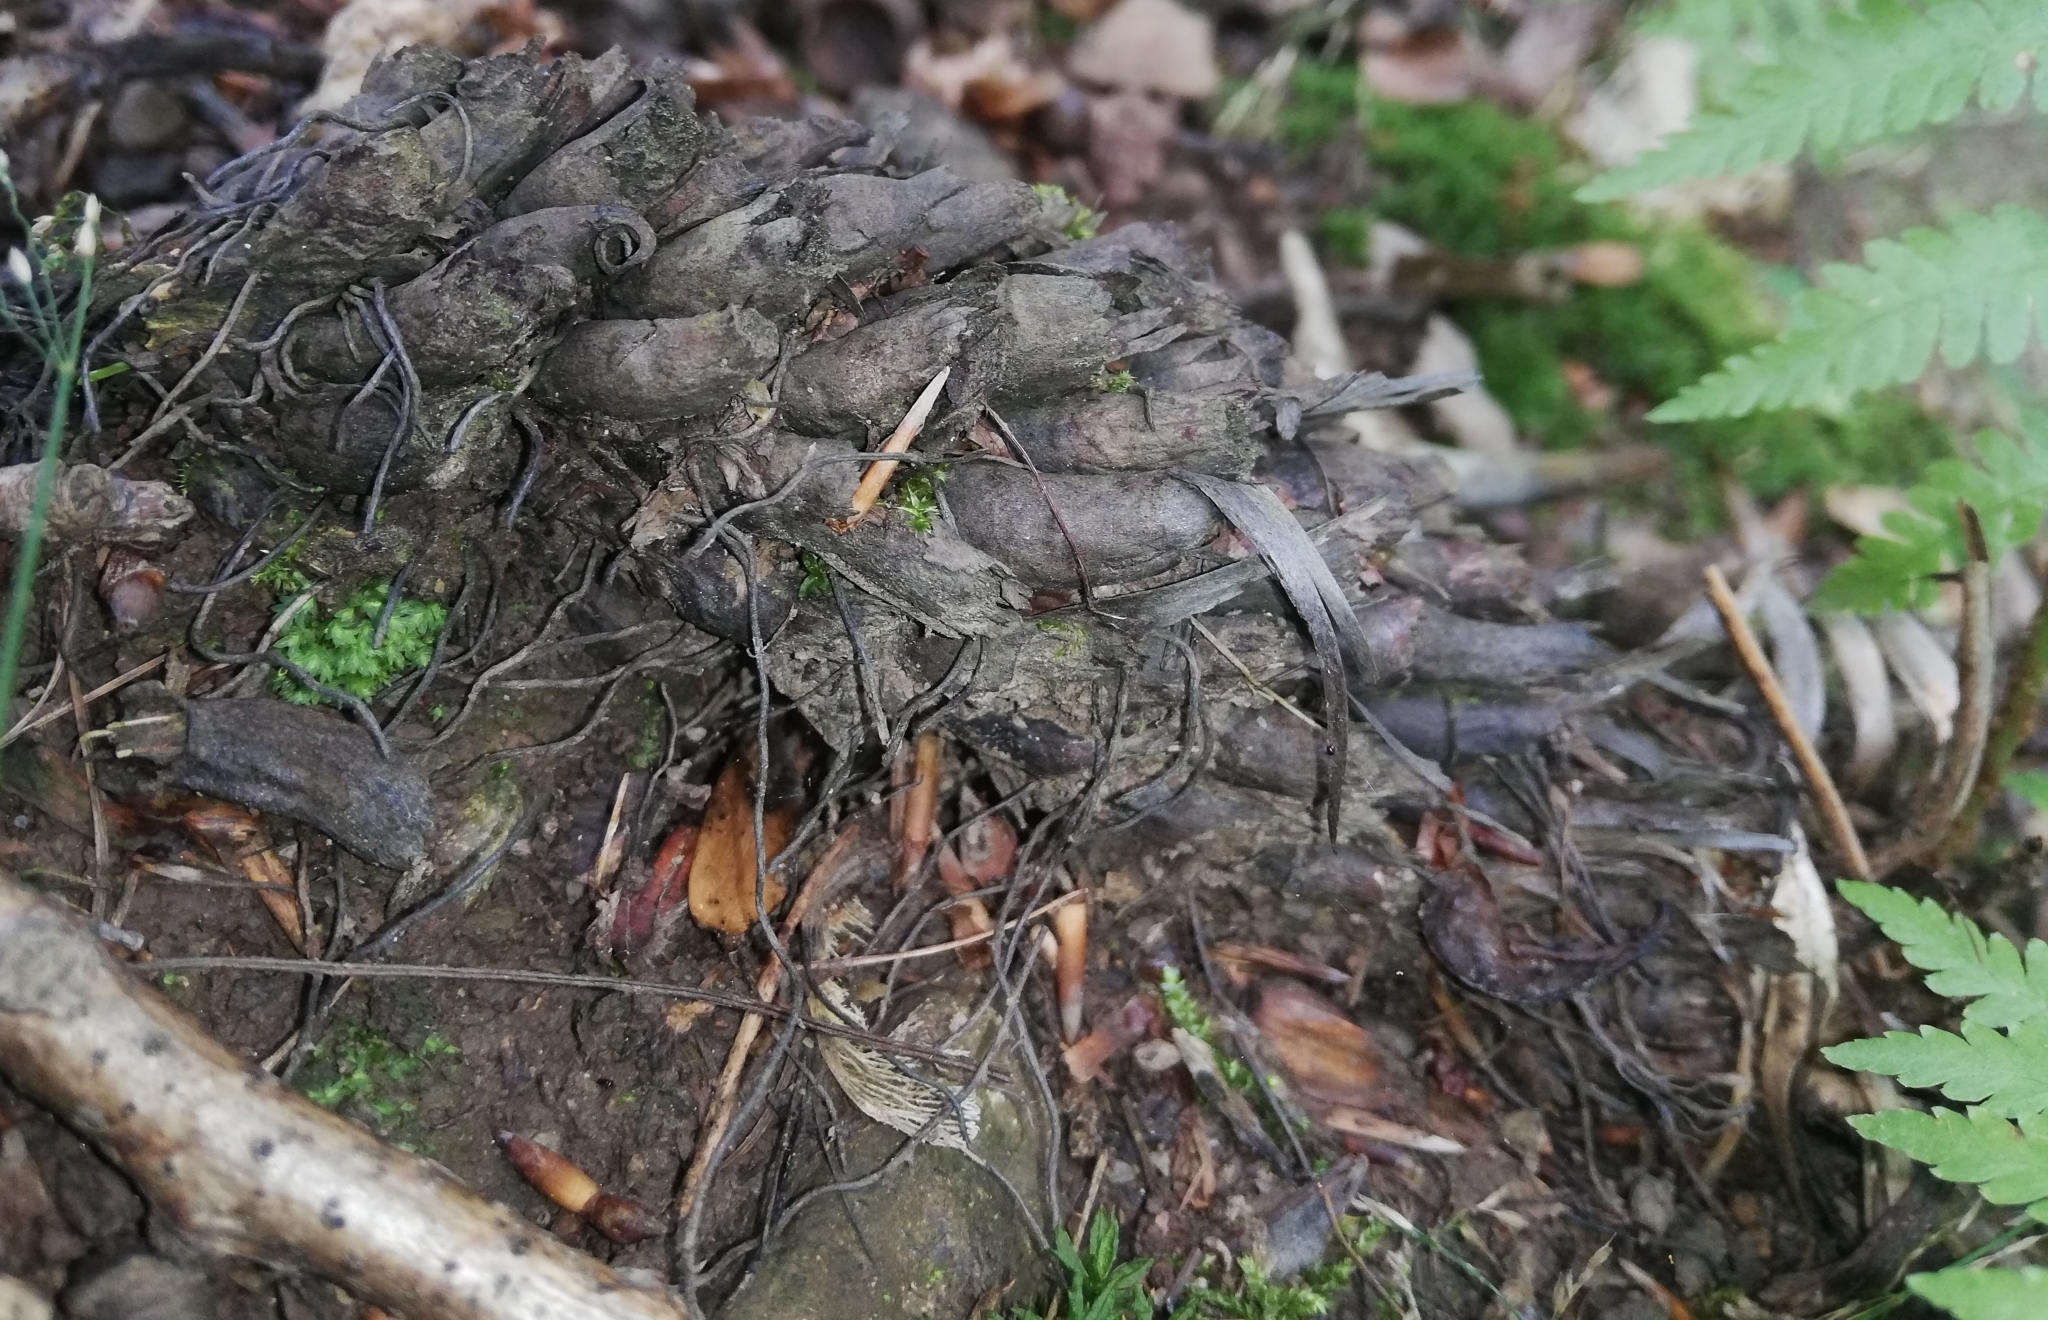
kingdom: Plantae
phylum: Tracheophyta
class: Polypodiopsida
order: Polypodiales
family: Dryopteridaceae
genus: Dryopteris
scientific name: Dryopteris filix-mas
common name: Male fern
